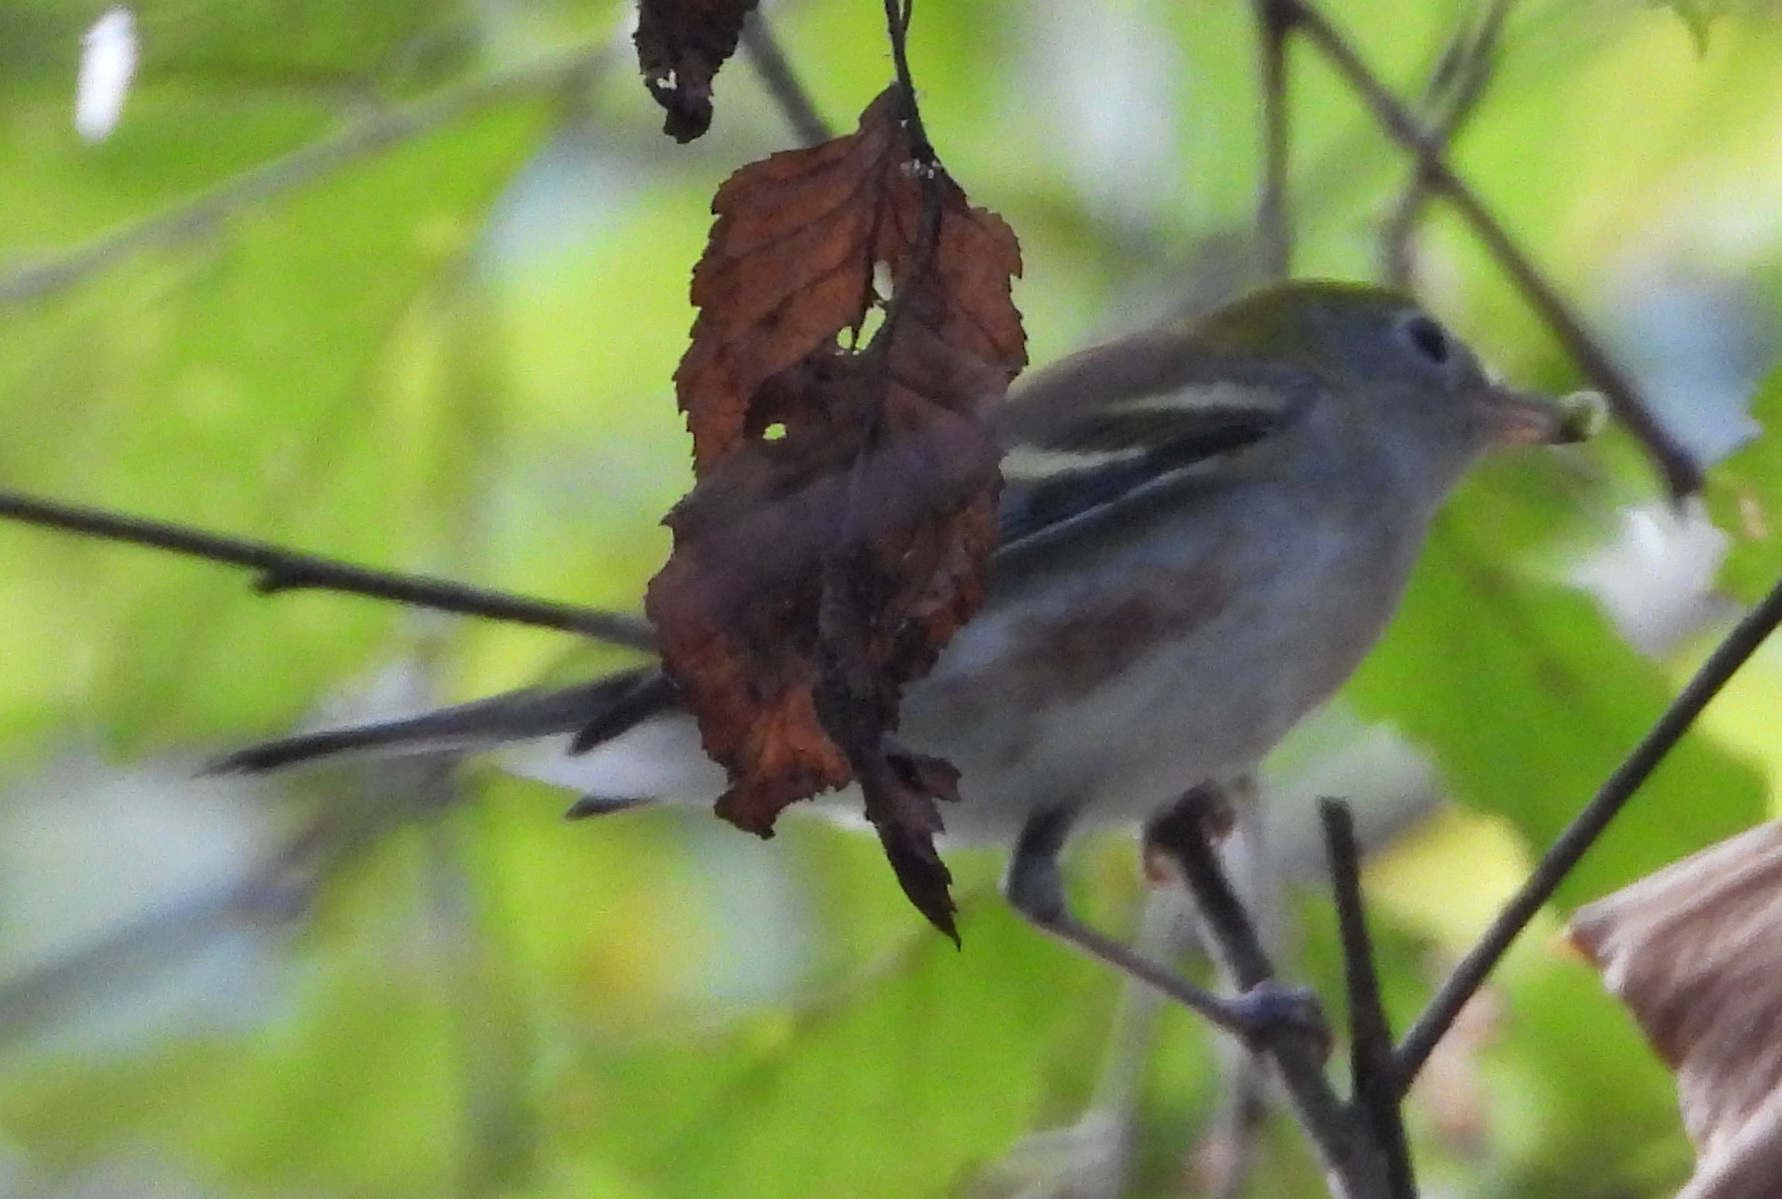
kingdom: Animalia
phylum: Chordata
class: Aves
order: Passeriformes
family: Parulidae
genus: Setophaga
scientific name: Setophaga pensylvanica
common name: Chestnut-sided warbler
